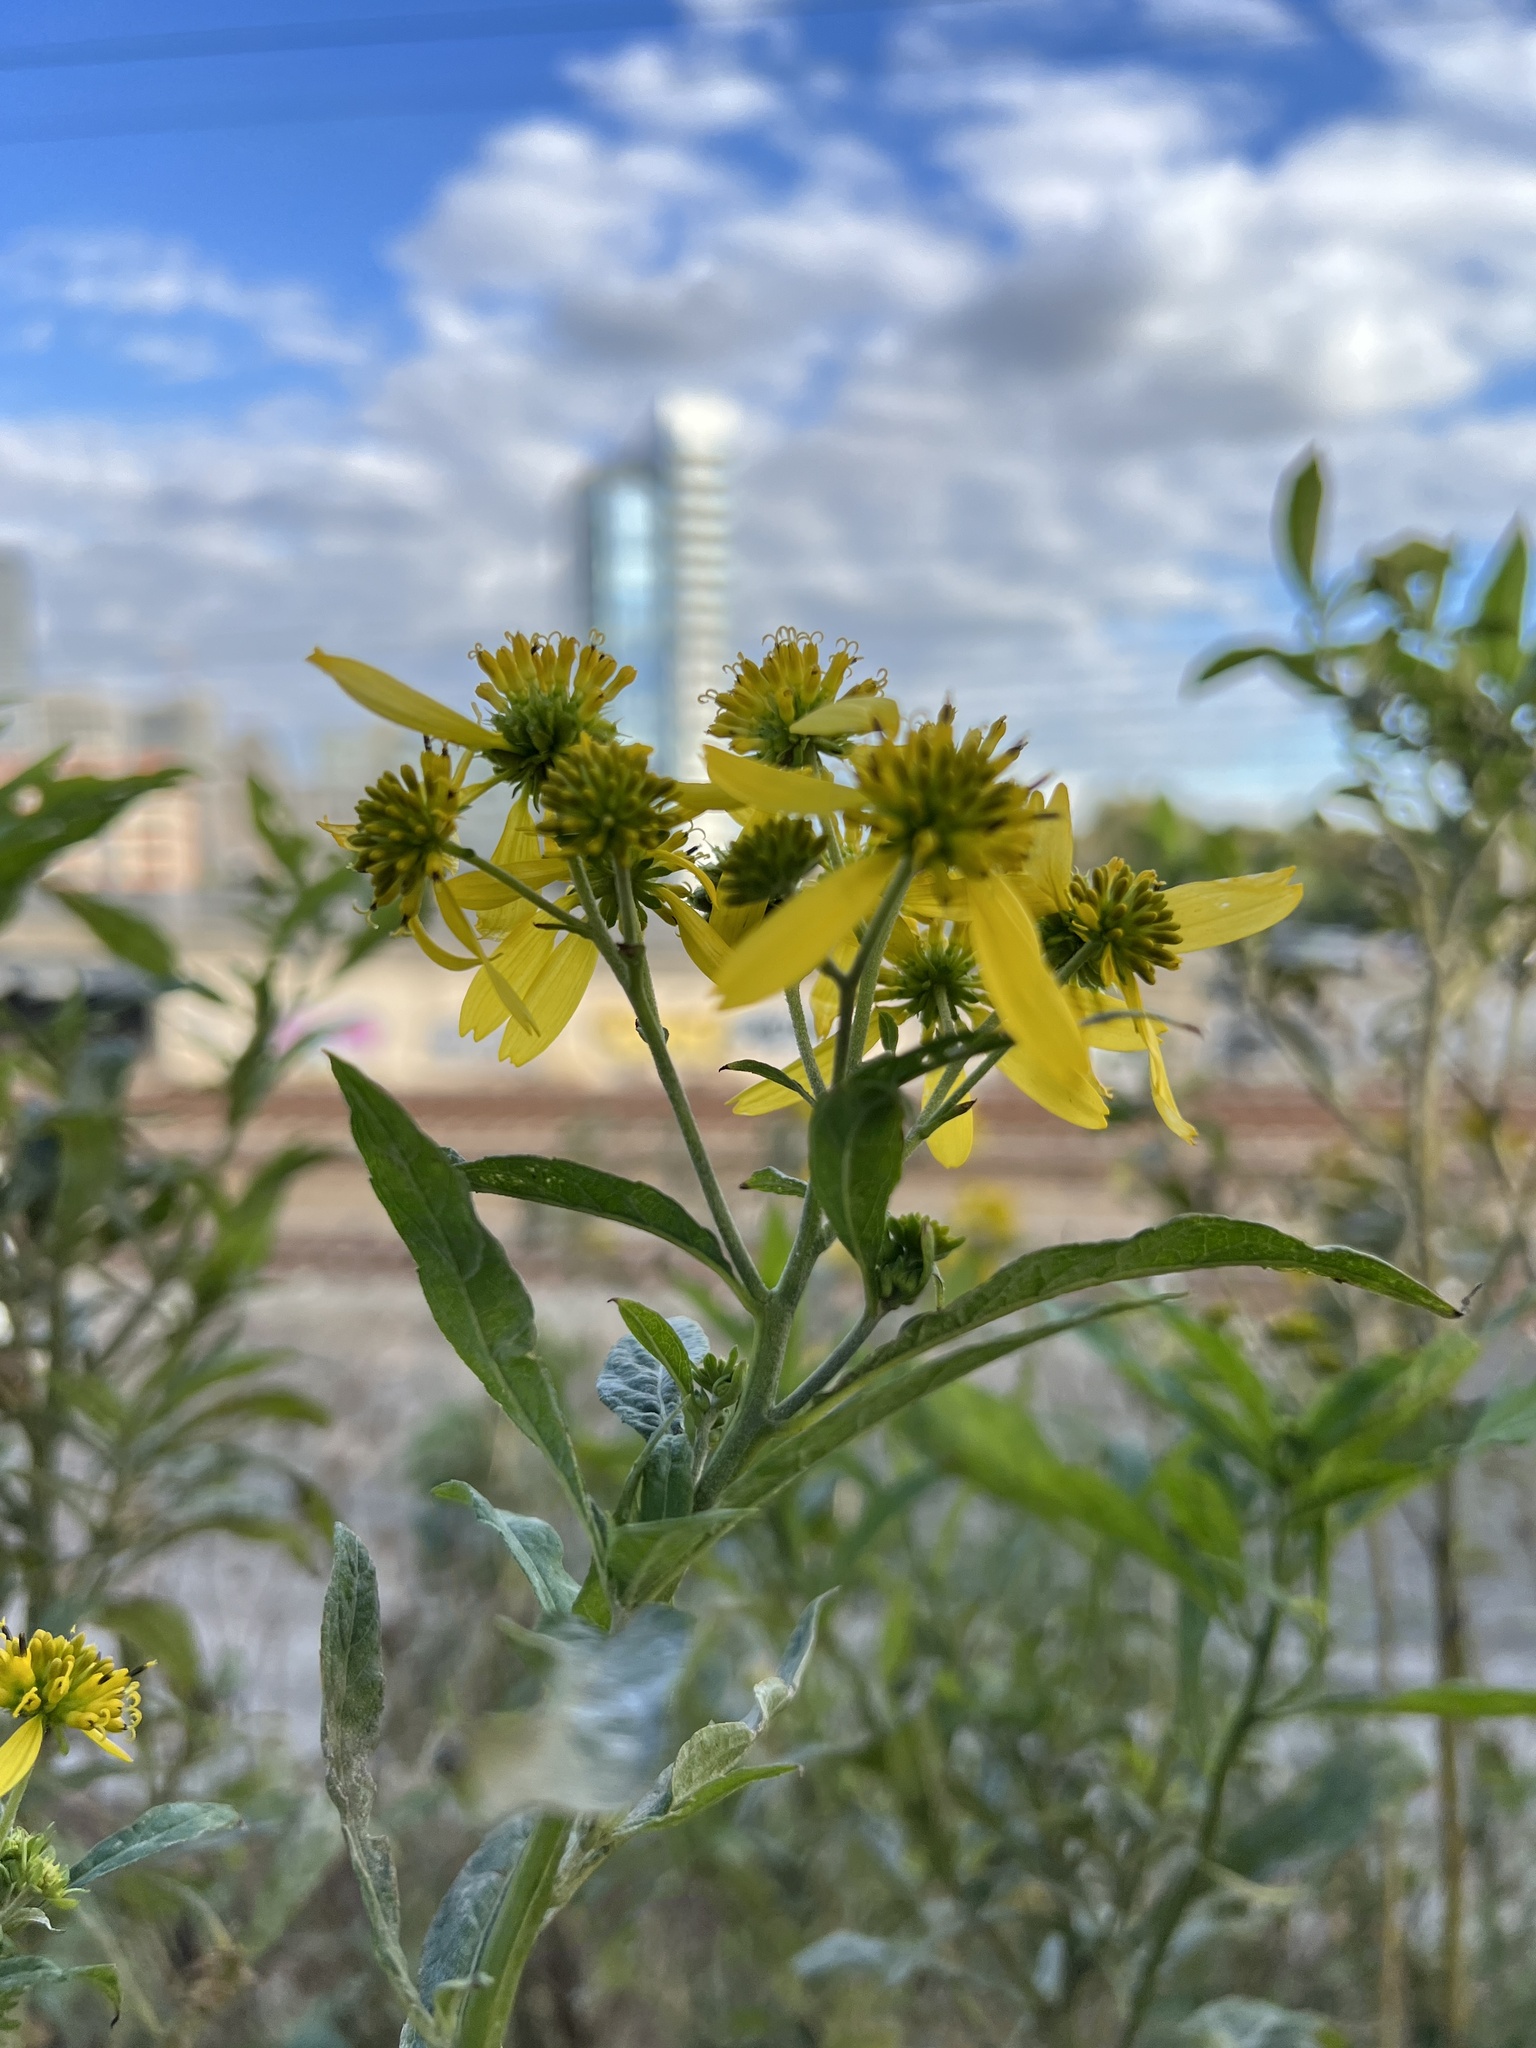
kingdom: Plantae
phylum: Tracheophyta
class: Magnoliopsida
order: Asterales
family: Asteraceae
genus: Verbesina
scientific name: Verbesina alternifolia
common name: Wingstem
